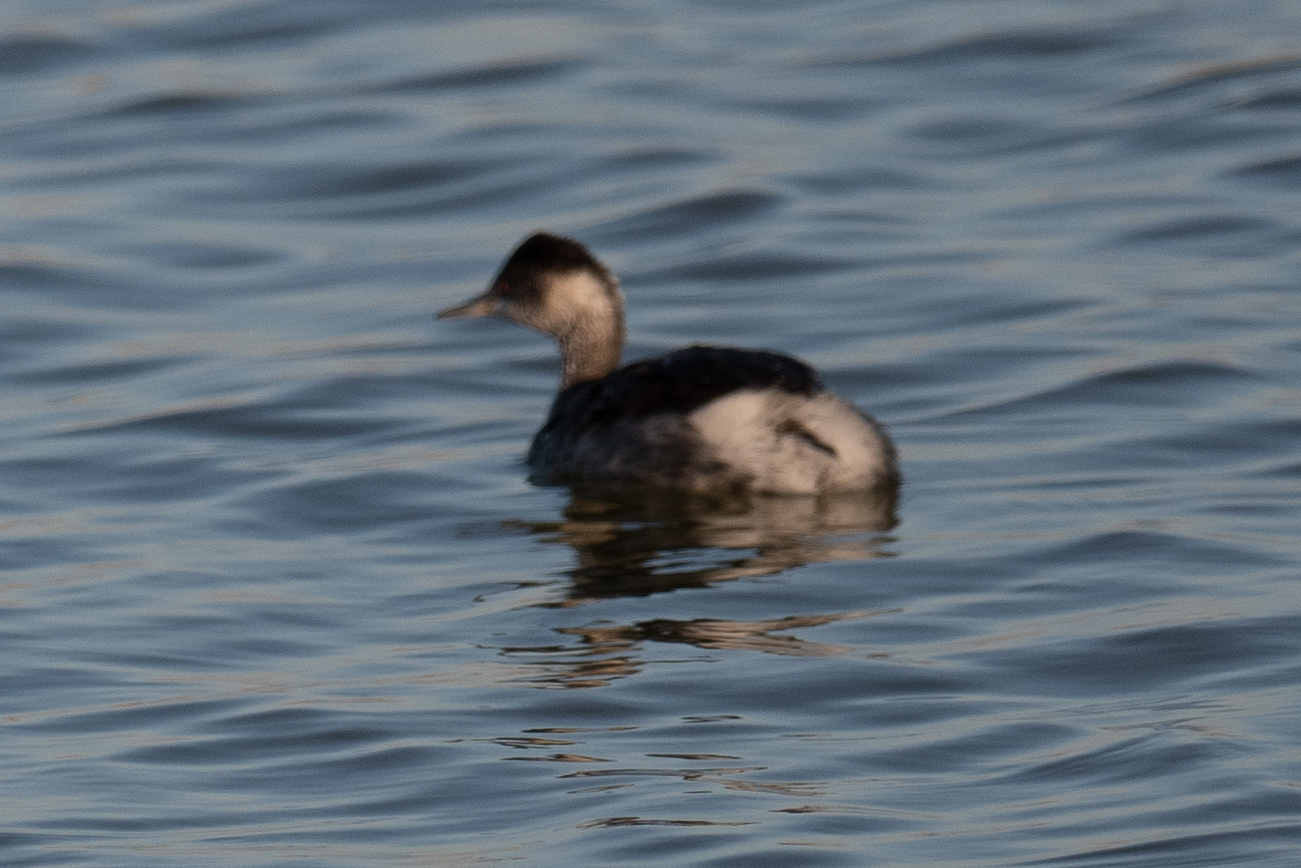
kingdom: Animalia
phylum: Chordata
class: Aves
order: Podicipediformes
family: Podicipedidae
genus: Podiceps
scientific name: Podiceps nigricollis
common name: Black-necked grebe
